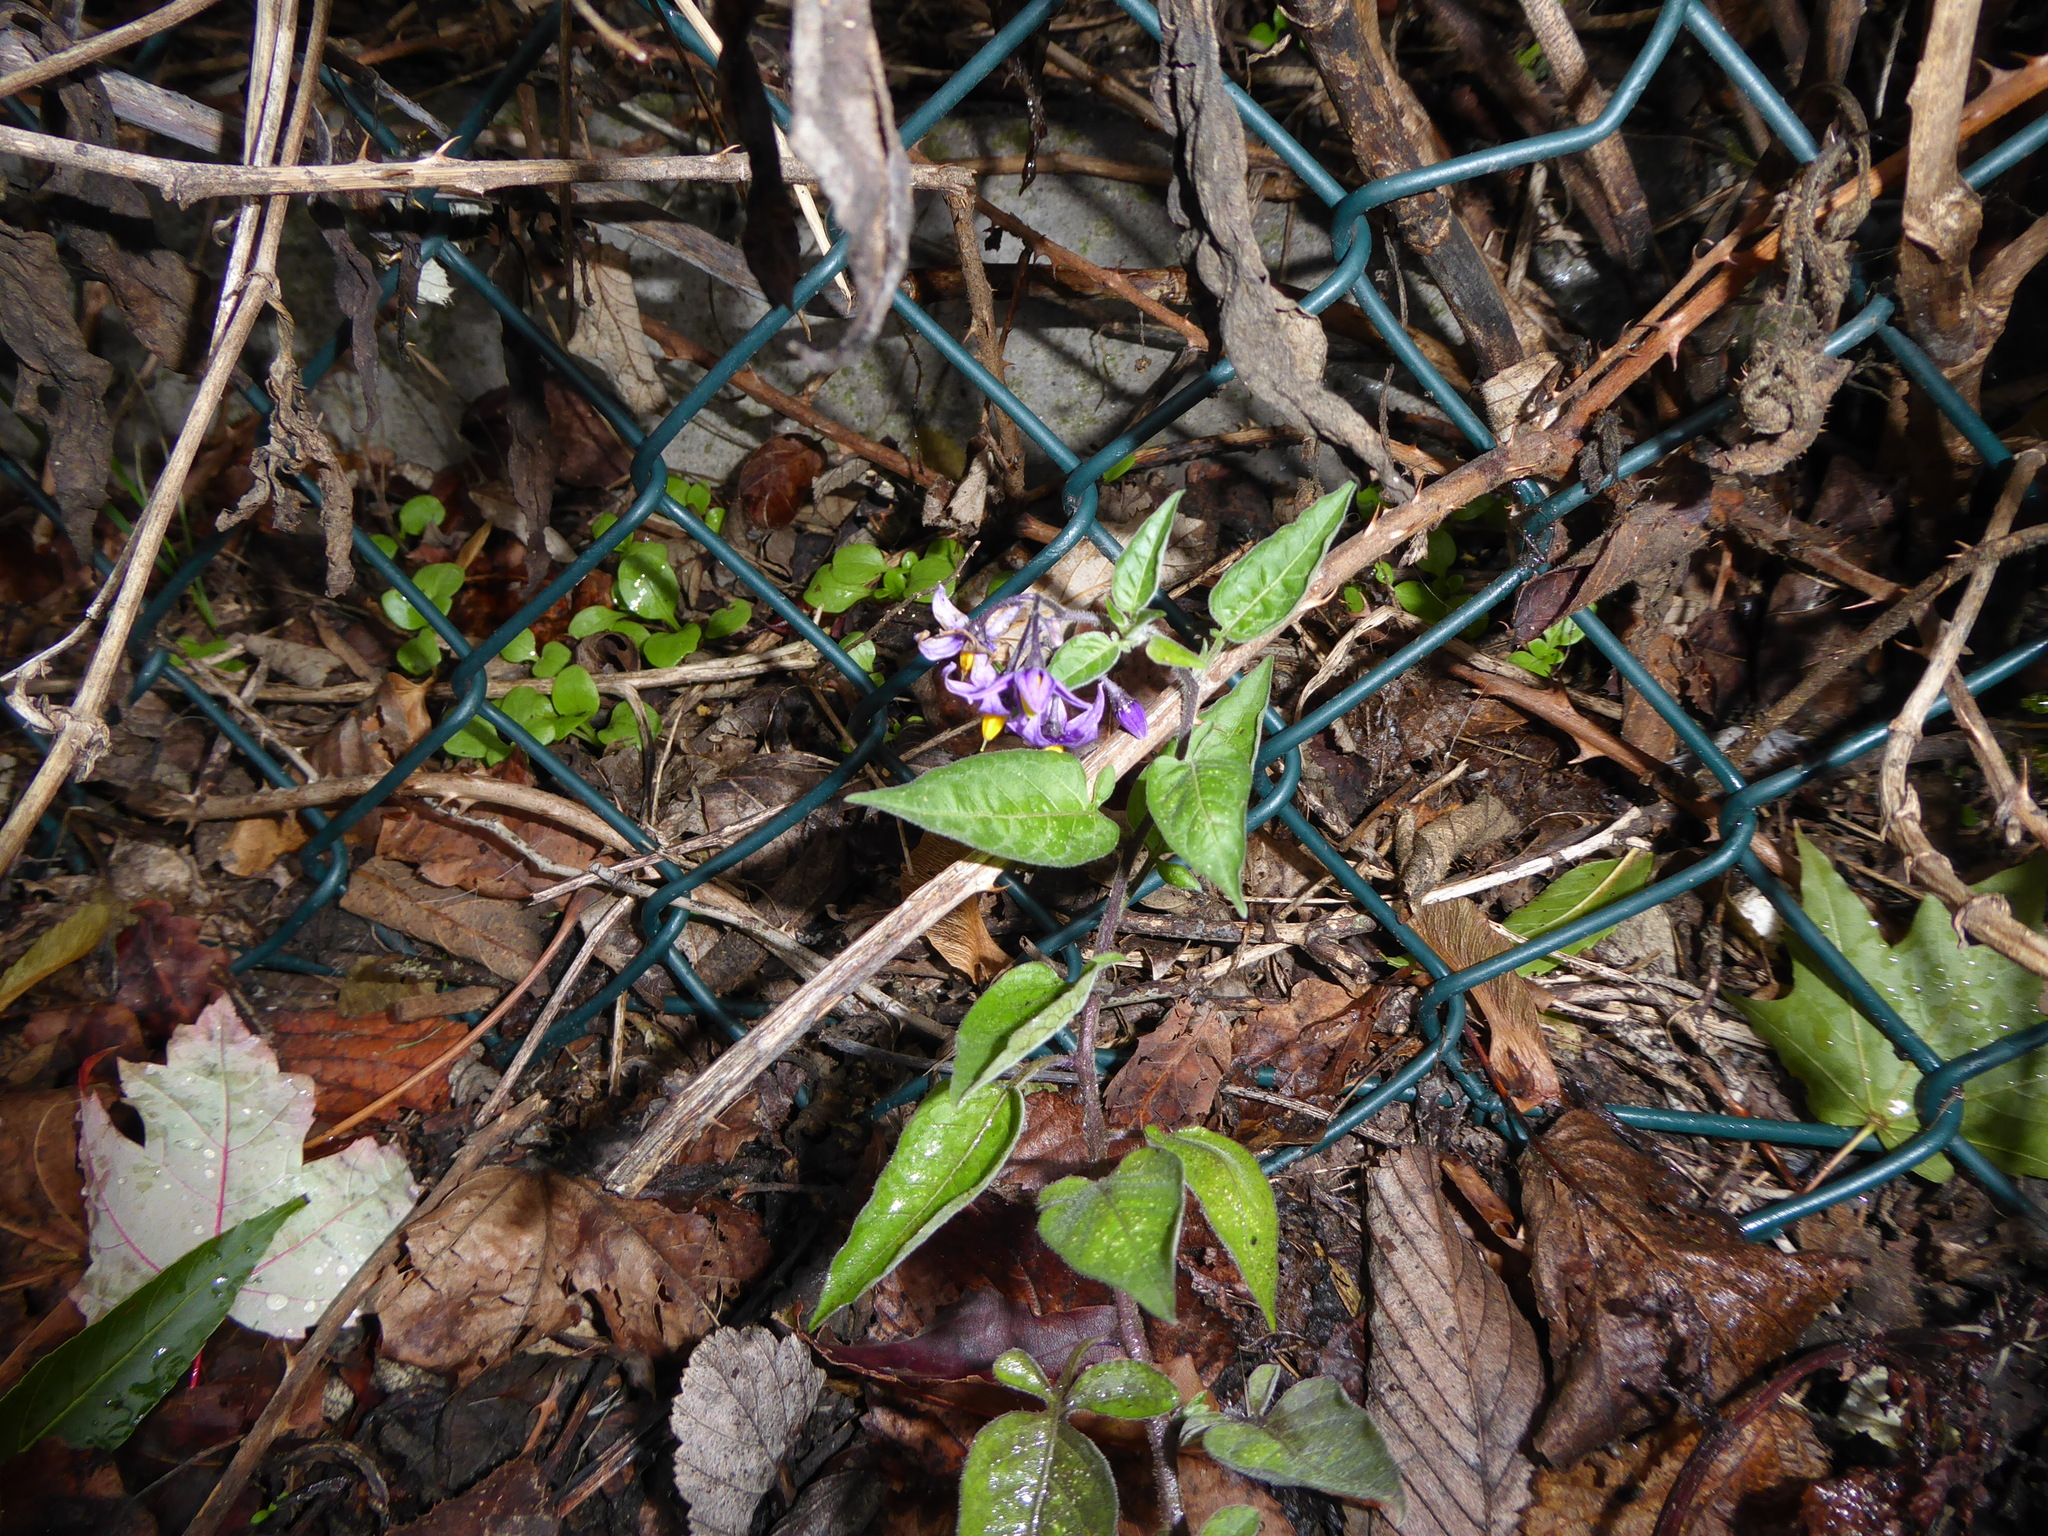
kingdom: Plantae
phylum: Tracheophyta
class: Magnoliopsida
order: Solanales
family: Solanaceae
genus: Solanum
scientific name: Solanum dulcamara
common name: Climbing nightshade
